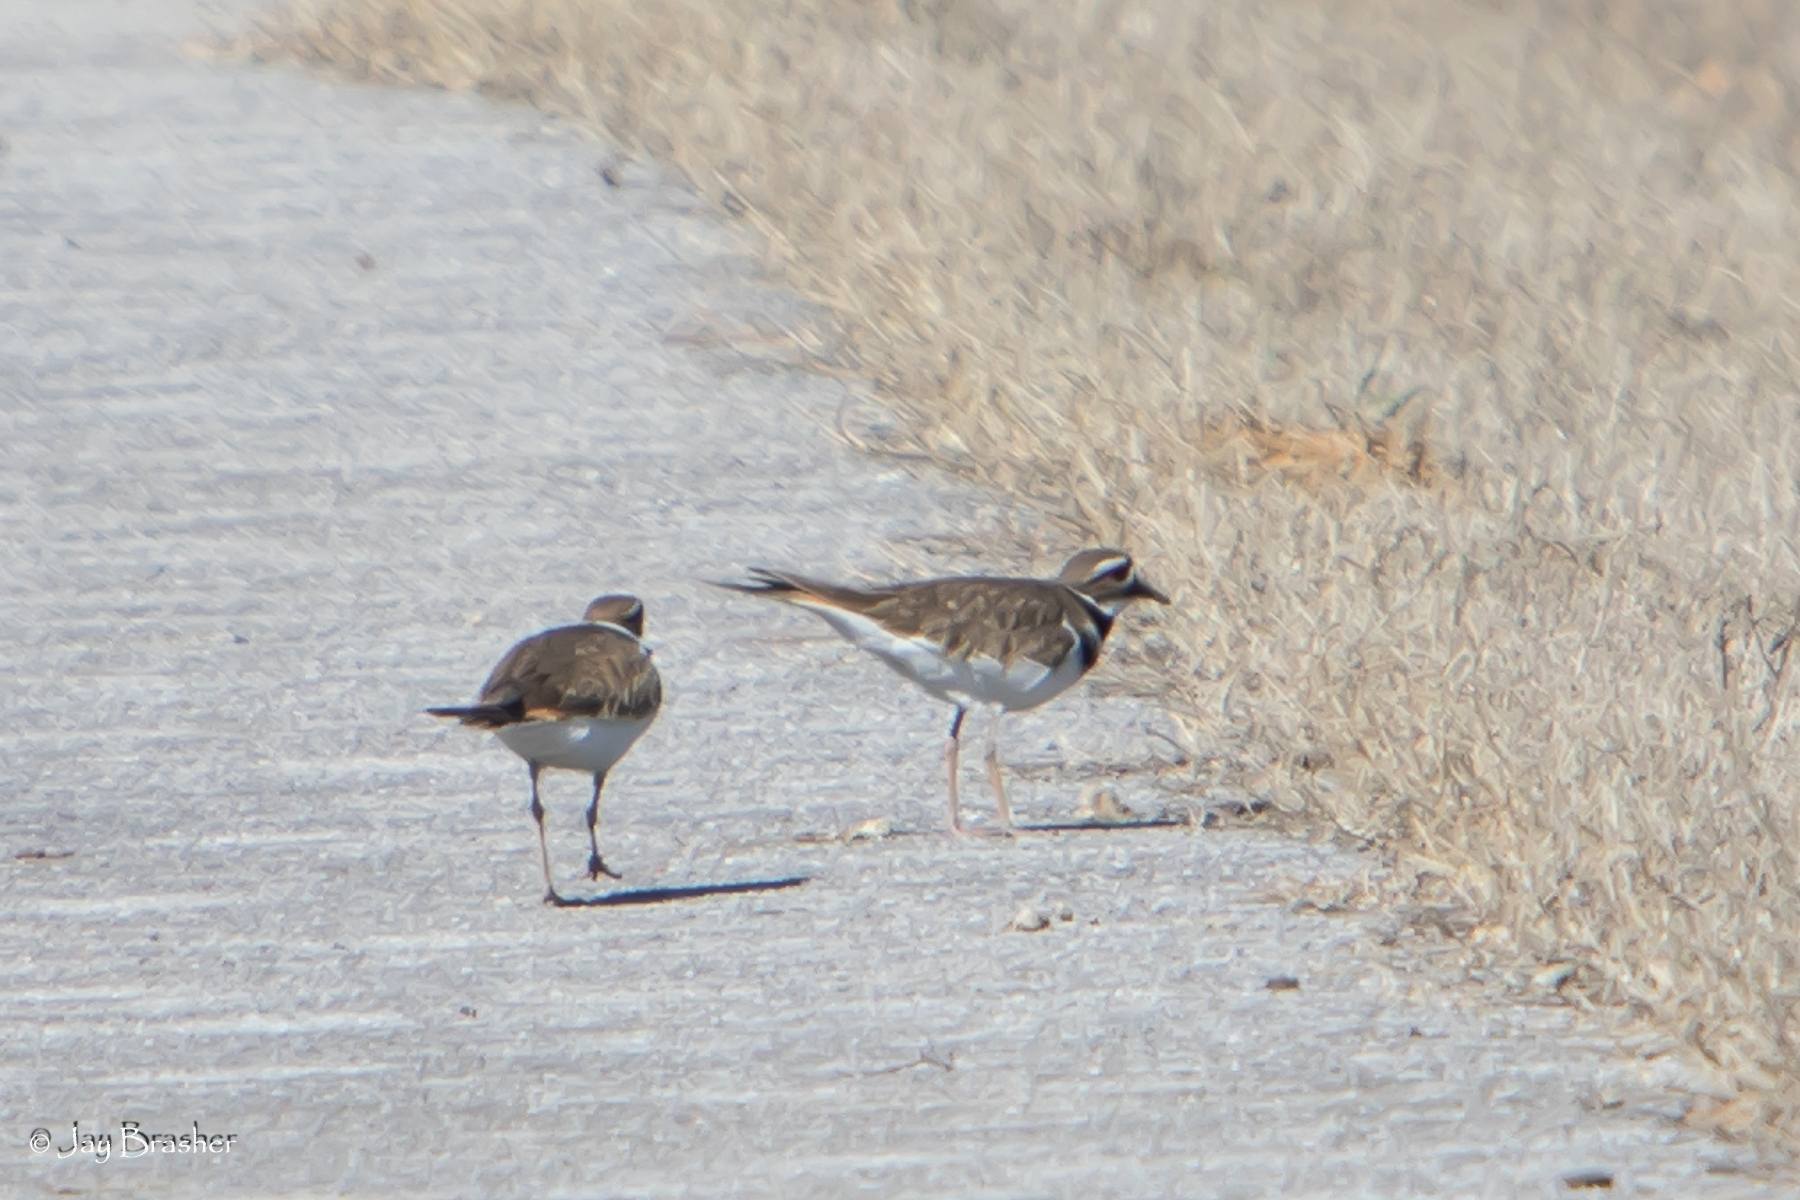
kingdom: Animalia
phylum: Chordata
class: Aves
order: Charadriiformes
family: Charadriidae
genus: Charadrius
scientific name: Charadrius vociferus
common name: Killdeer
